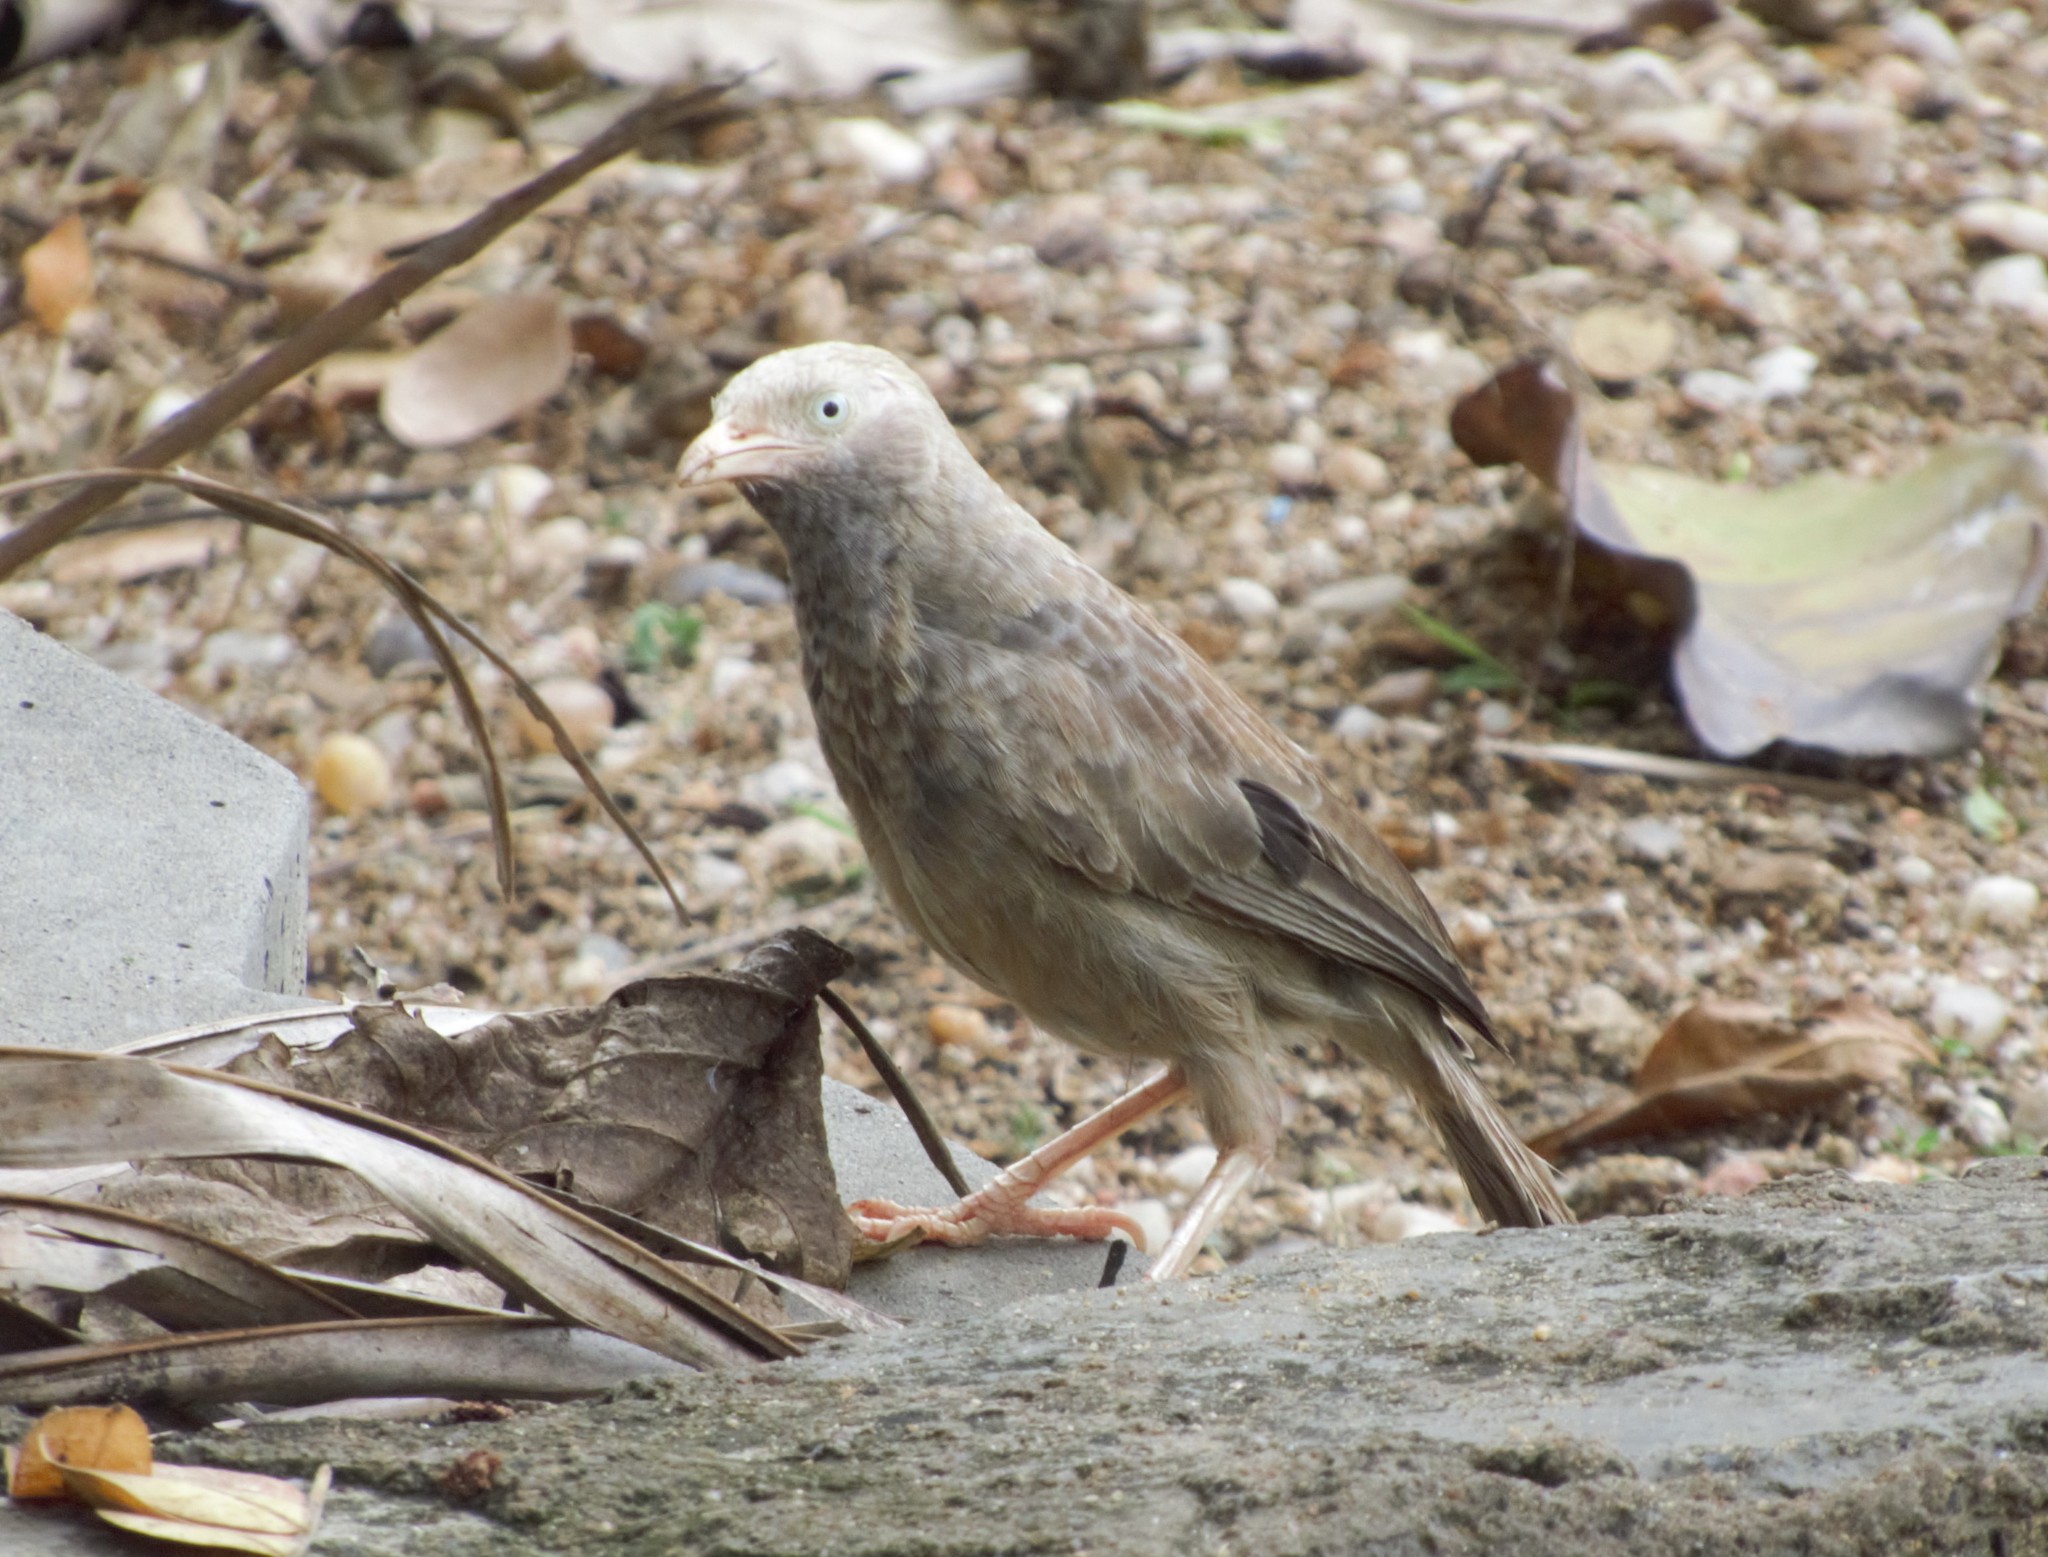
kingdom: Animalia
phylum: Chordata
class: Aves
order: Passeriformes
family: Leiothrichidae
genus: Turdoides
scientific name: Turdoides affinis
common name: Yellow-billed babbler
